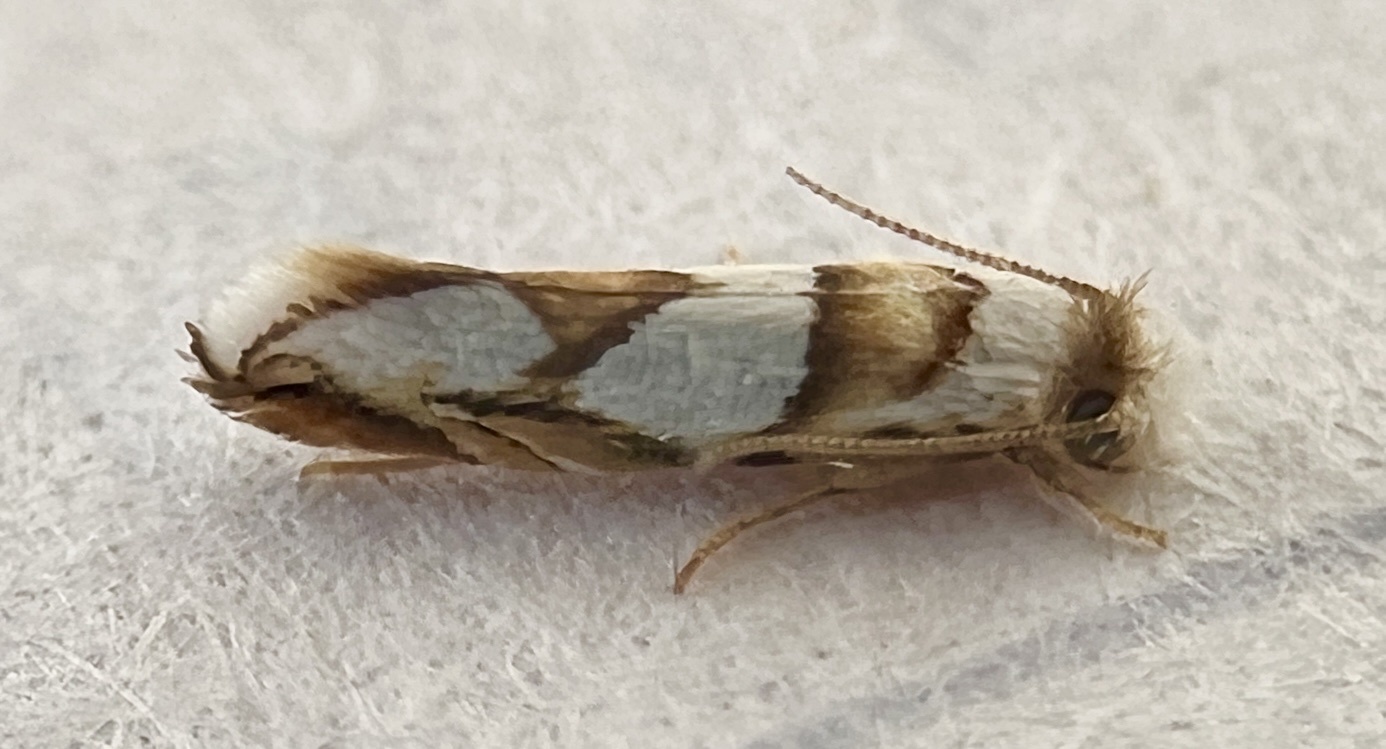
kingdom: Animalia
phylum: Arthropoda
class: Insecta
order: Lepidoptera
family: Meessiidae
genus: Pompostolella
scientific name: Pompostolella charipepla
